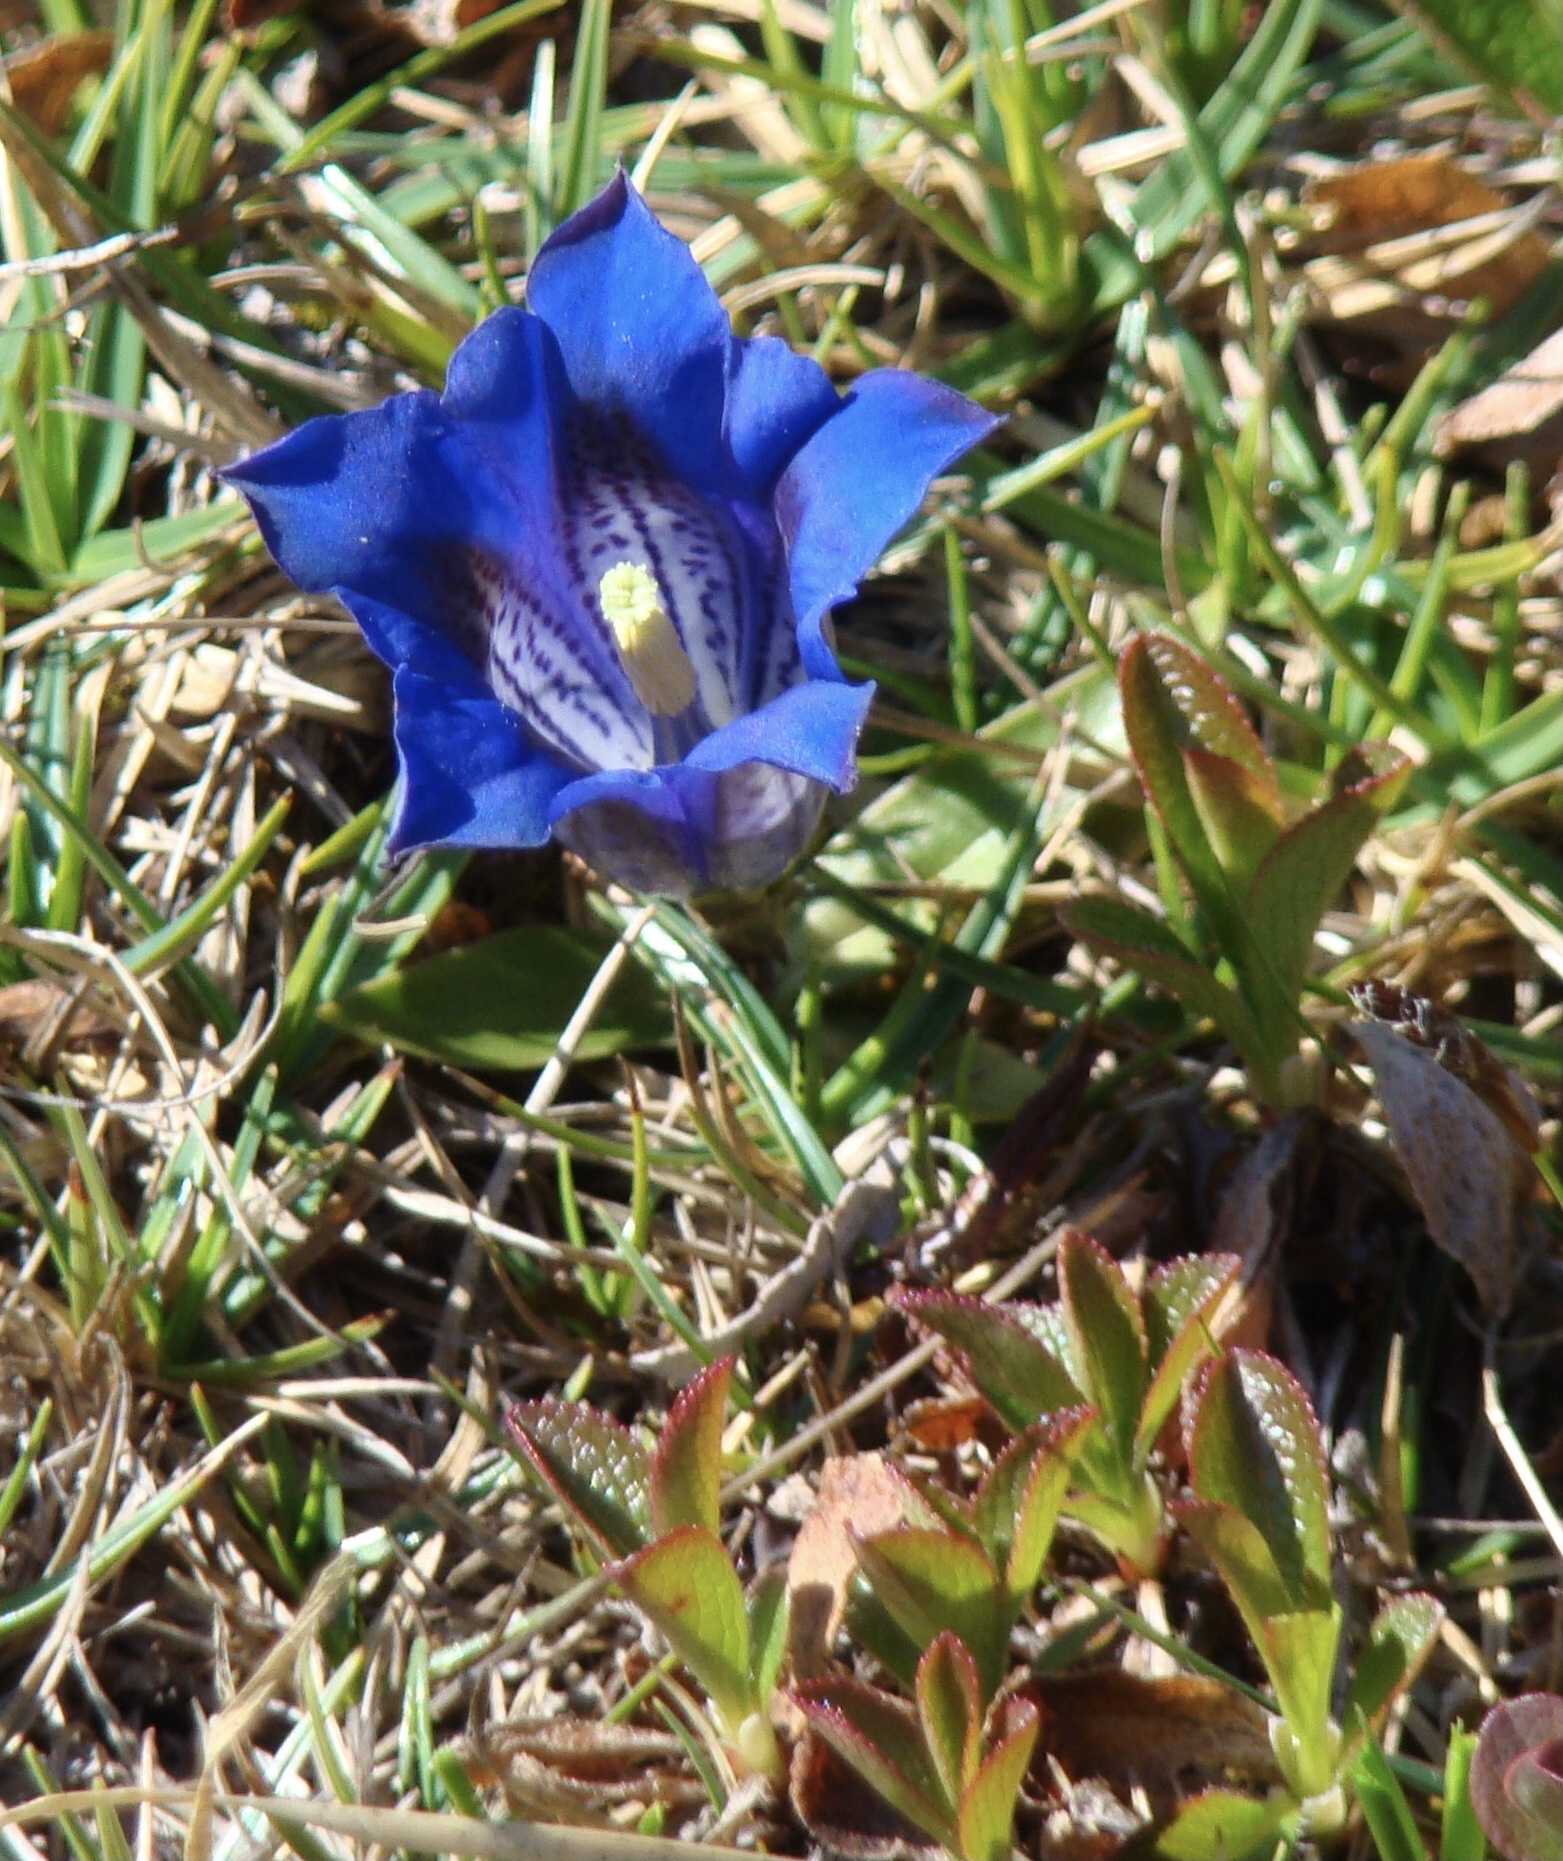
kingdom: Plantae
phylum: Tracheophyta
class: Magnoliopsida
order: Gentianales
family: Gentianaceae
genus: Gentiana
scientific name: Gentiana clusii
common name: Trumpet gentian
